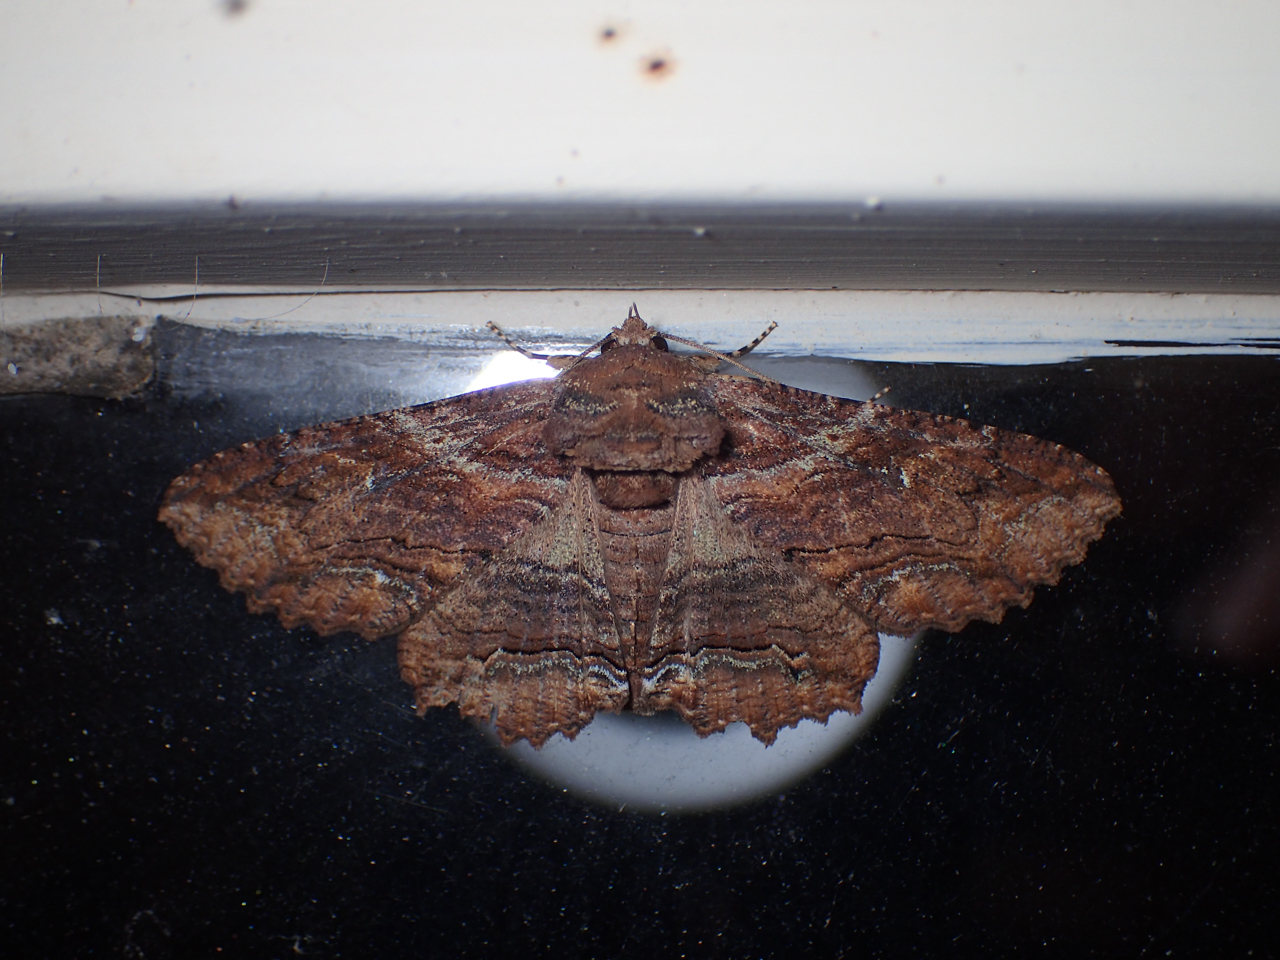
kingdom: Animalia
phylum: Arthropoda
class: Insecta
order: Lepidoptera
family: Erebidae
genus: Zale
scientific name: Zale lunata
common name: Lunate zale moth
